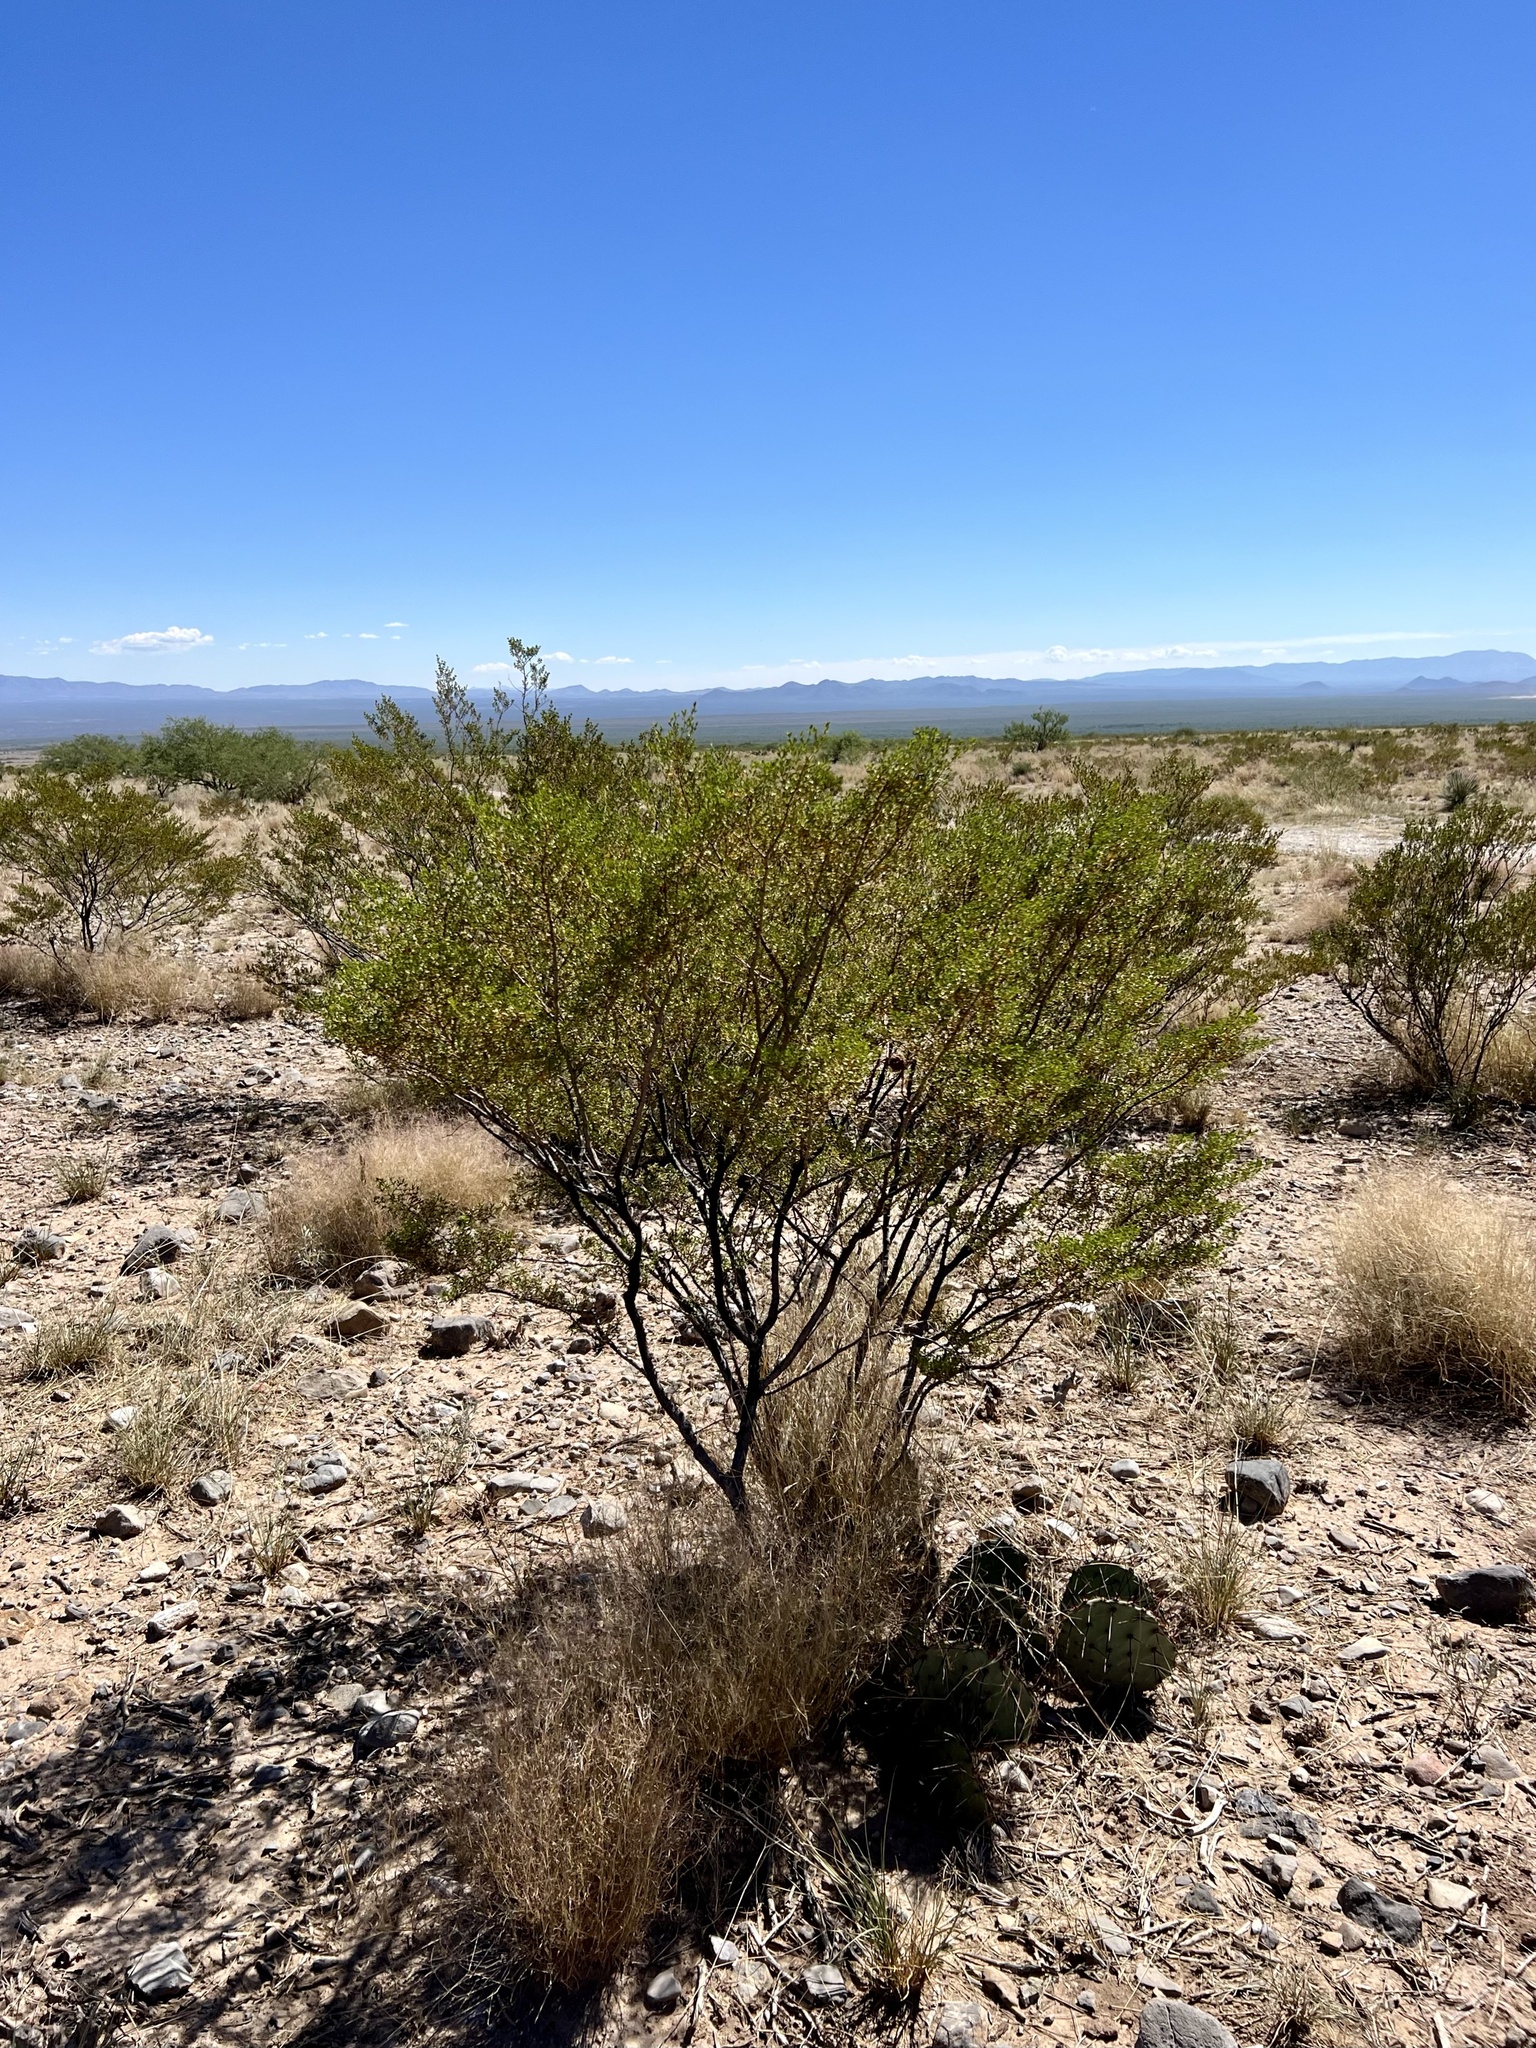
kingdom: Plantae
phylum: Tracheophyta
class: Magnoliopsida
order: Zygophyllales
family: Zygophyllaceae
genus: Larrea
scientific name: Larrea tridentata
